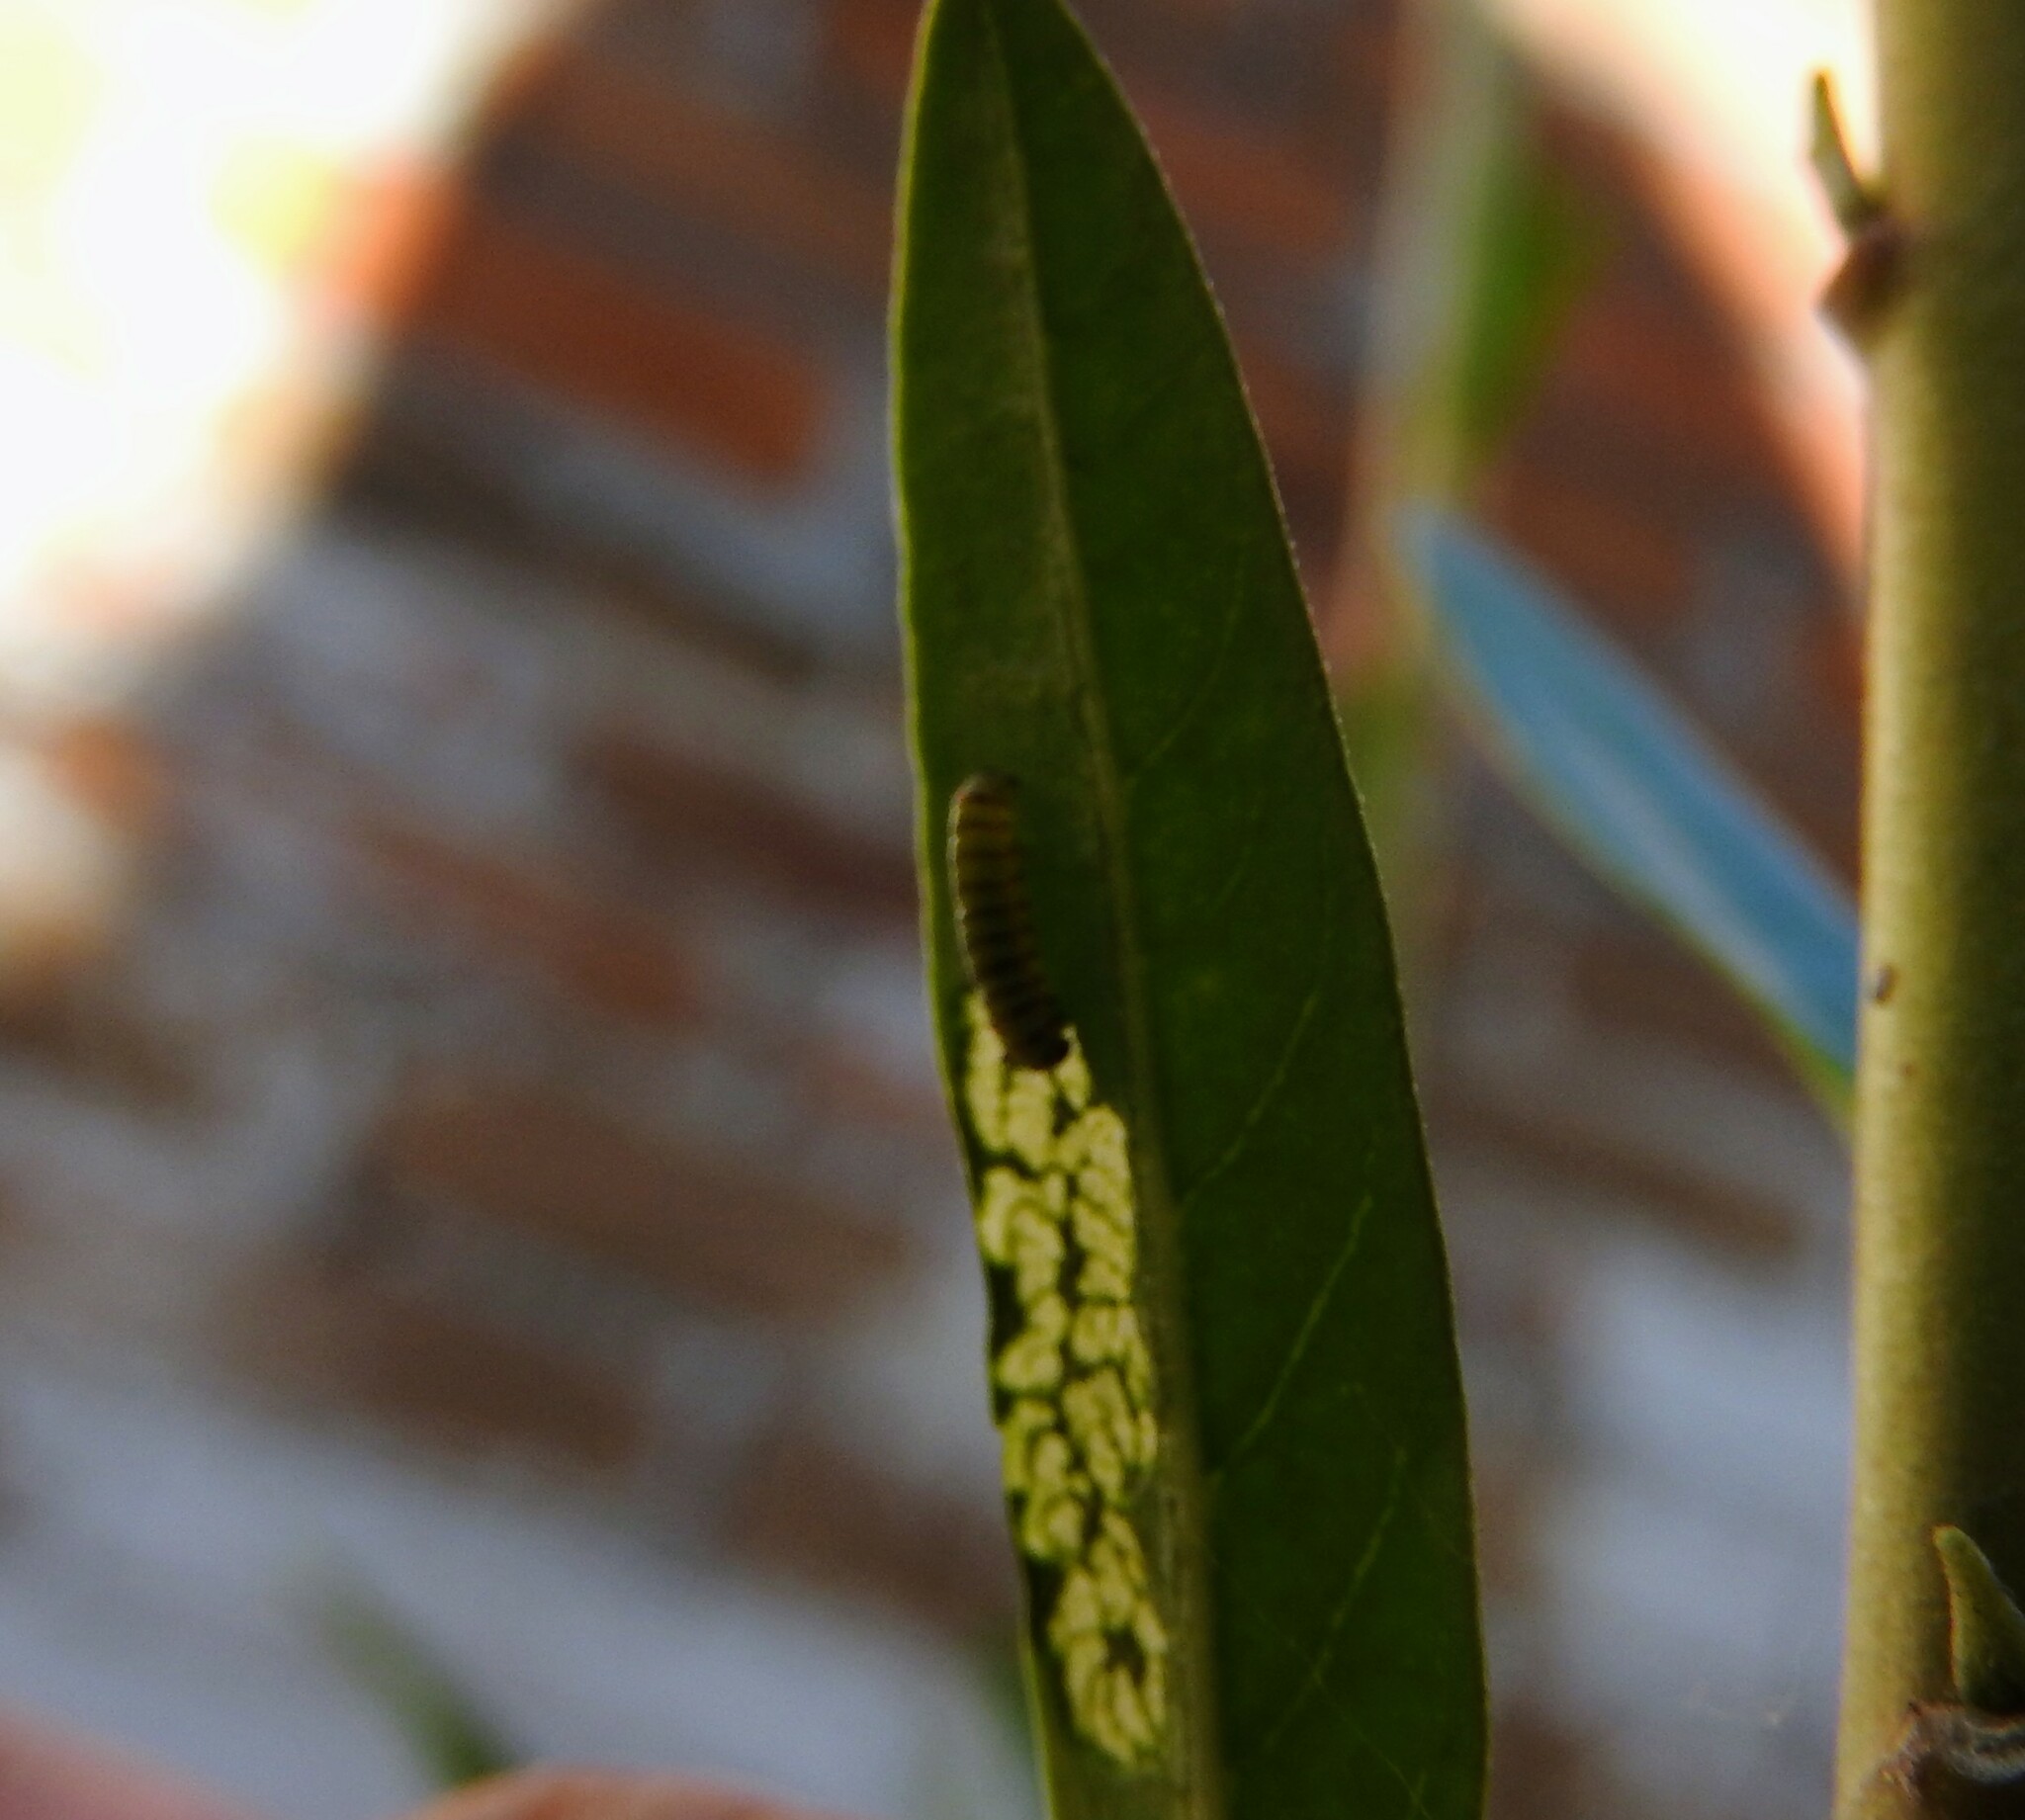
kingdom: Animalia
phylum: Arthropoda
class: Insecta
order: Lepidoptera
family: Nymphalidae
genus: Danaus
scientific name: Danaus plexippus
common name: Monarch
